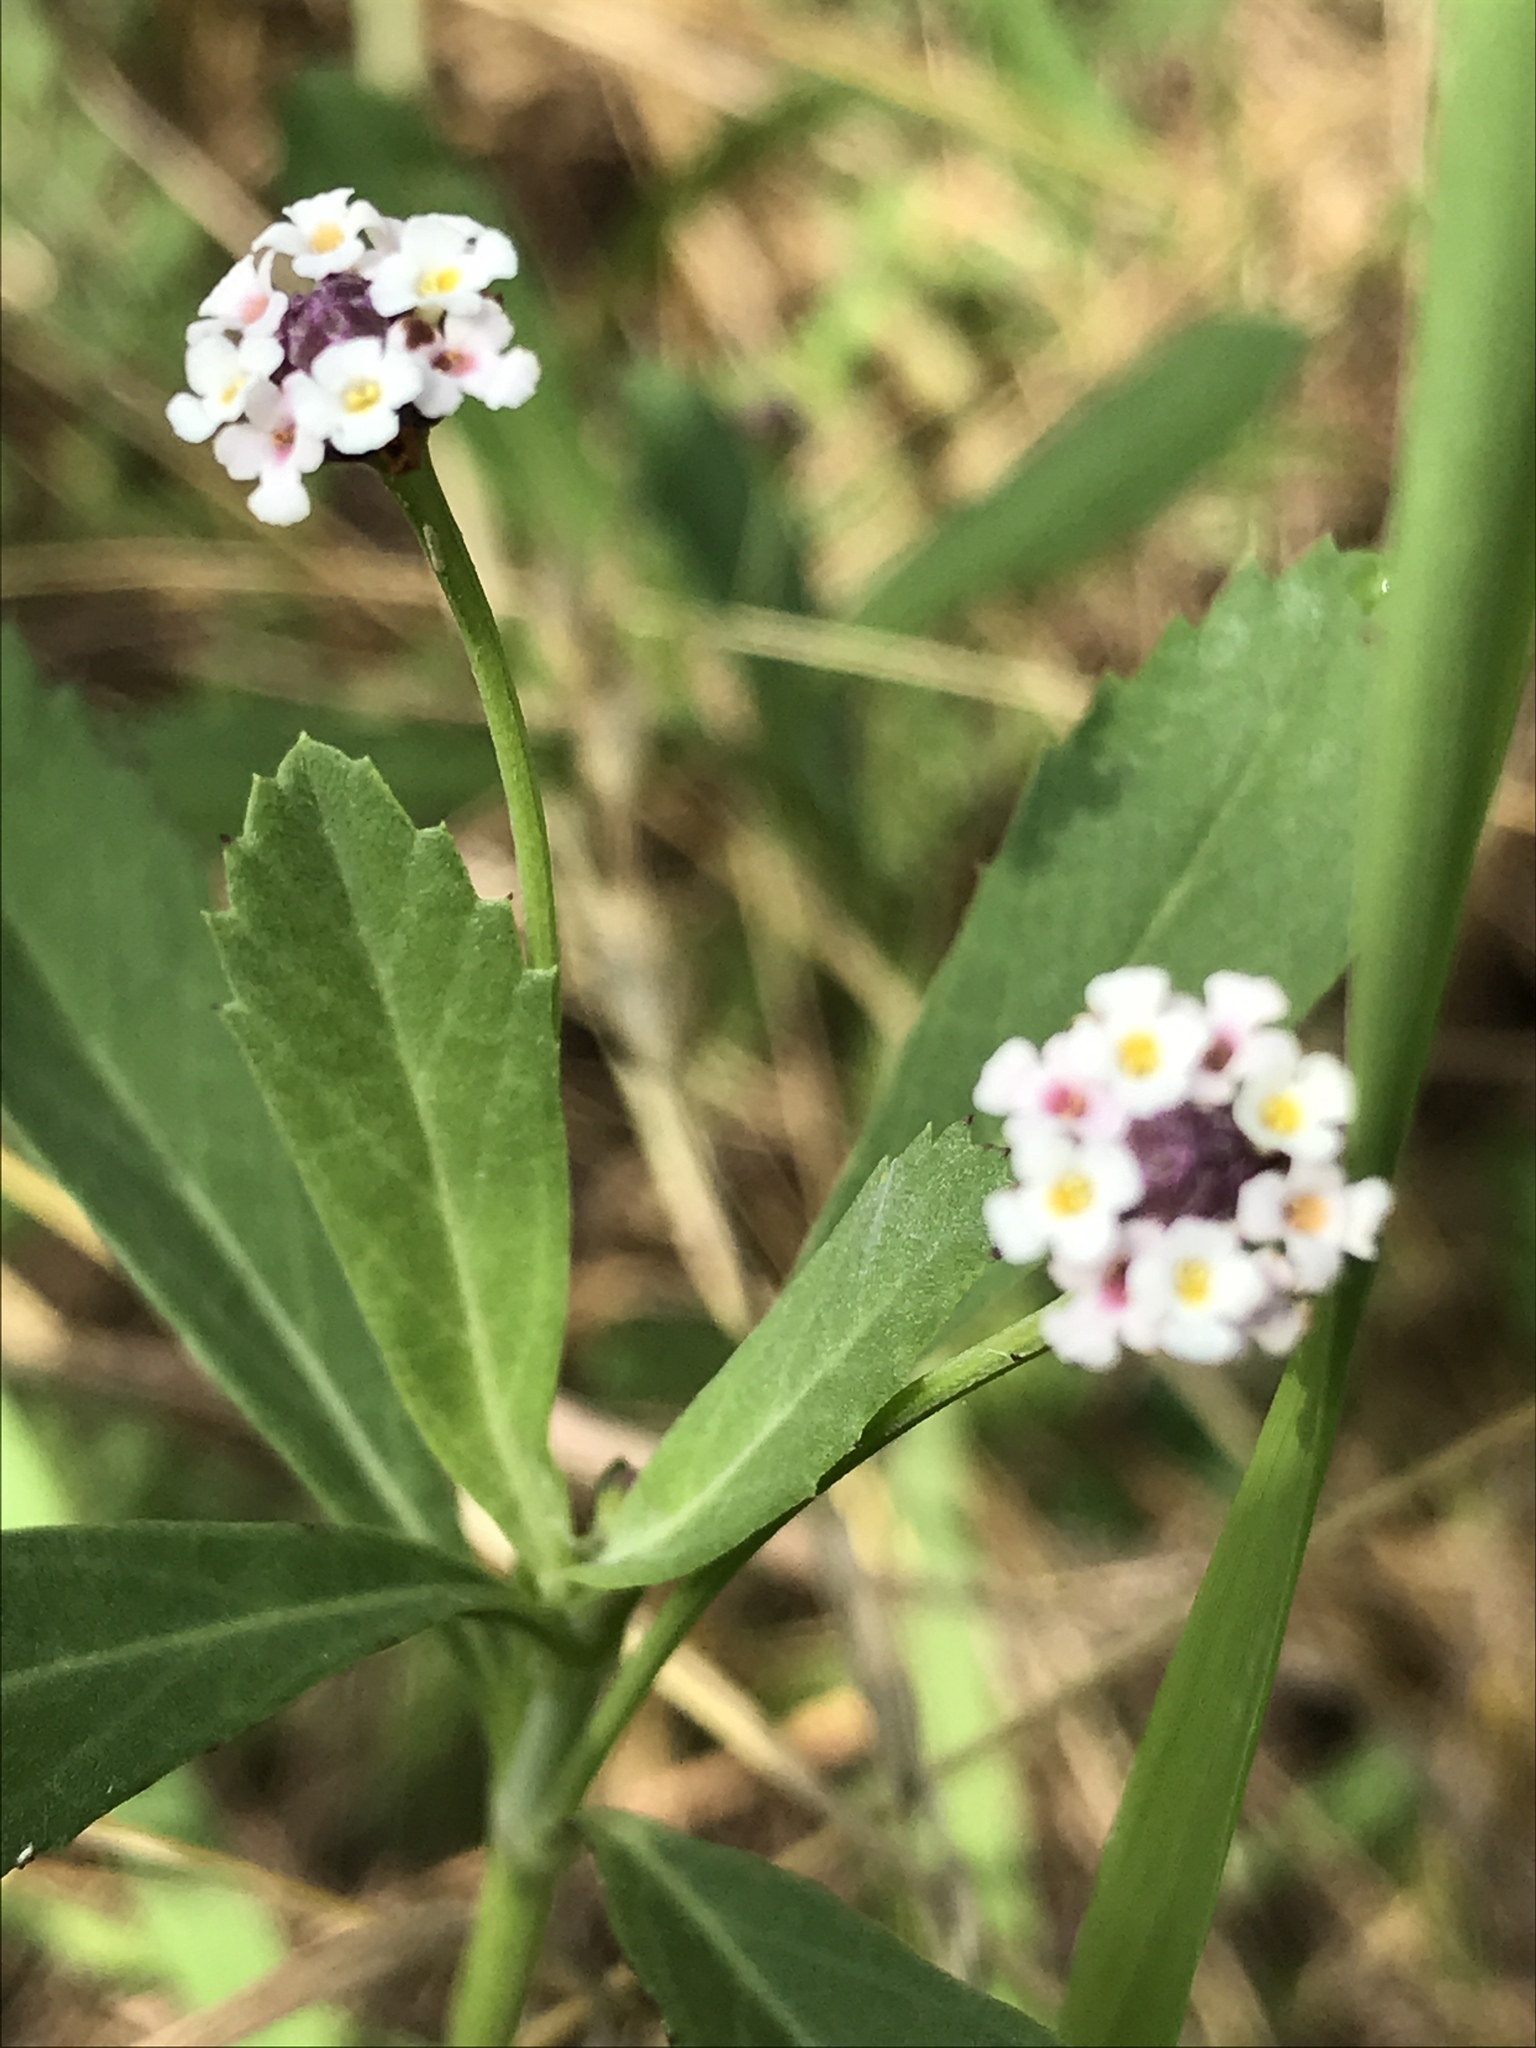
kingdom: Plantae
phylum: Tracheophyta
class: Magnoliopsida
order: Lamiales
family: Verbenaceae
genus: Phyla
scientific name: Phyla nodiflora
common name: Frogfruit
